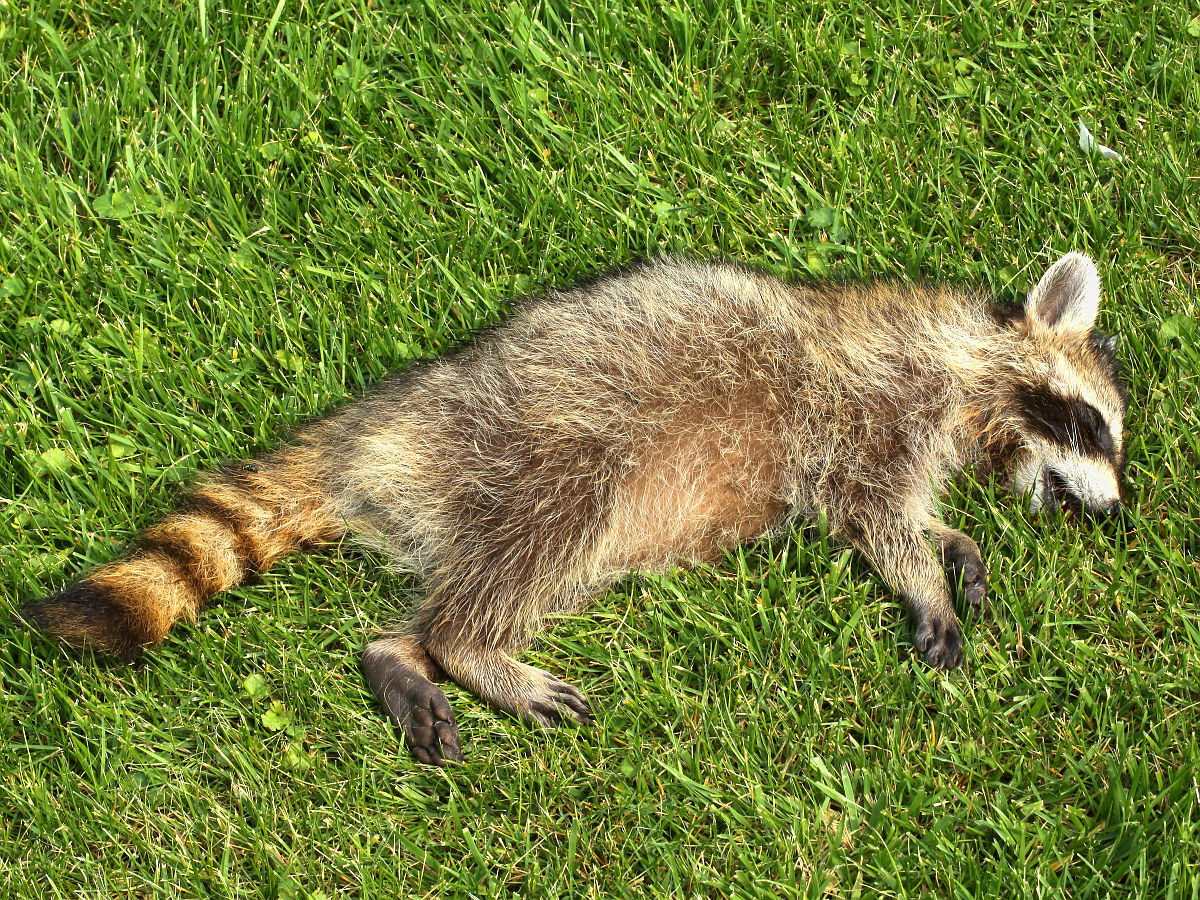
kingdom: Animalia
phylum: Chordata
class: Mammalia
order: Carnivora
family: Procyonidae
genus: Procyon
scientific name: Procyon lotor
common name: Raccoon
